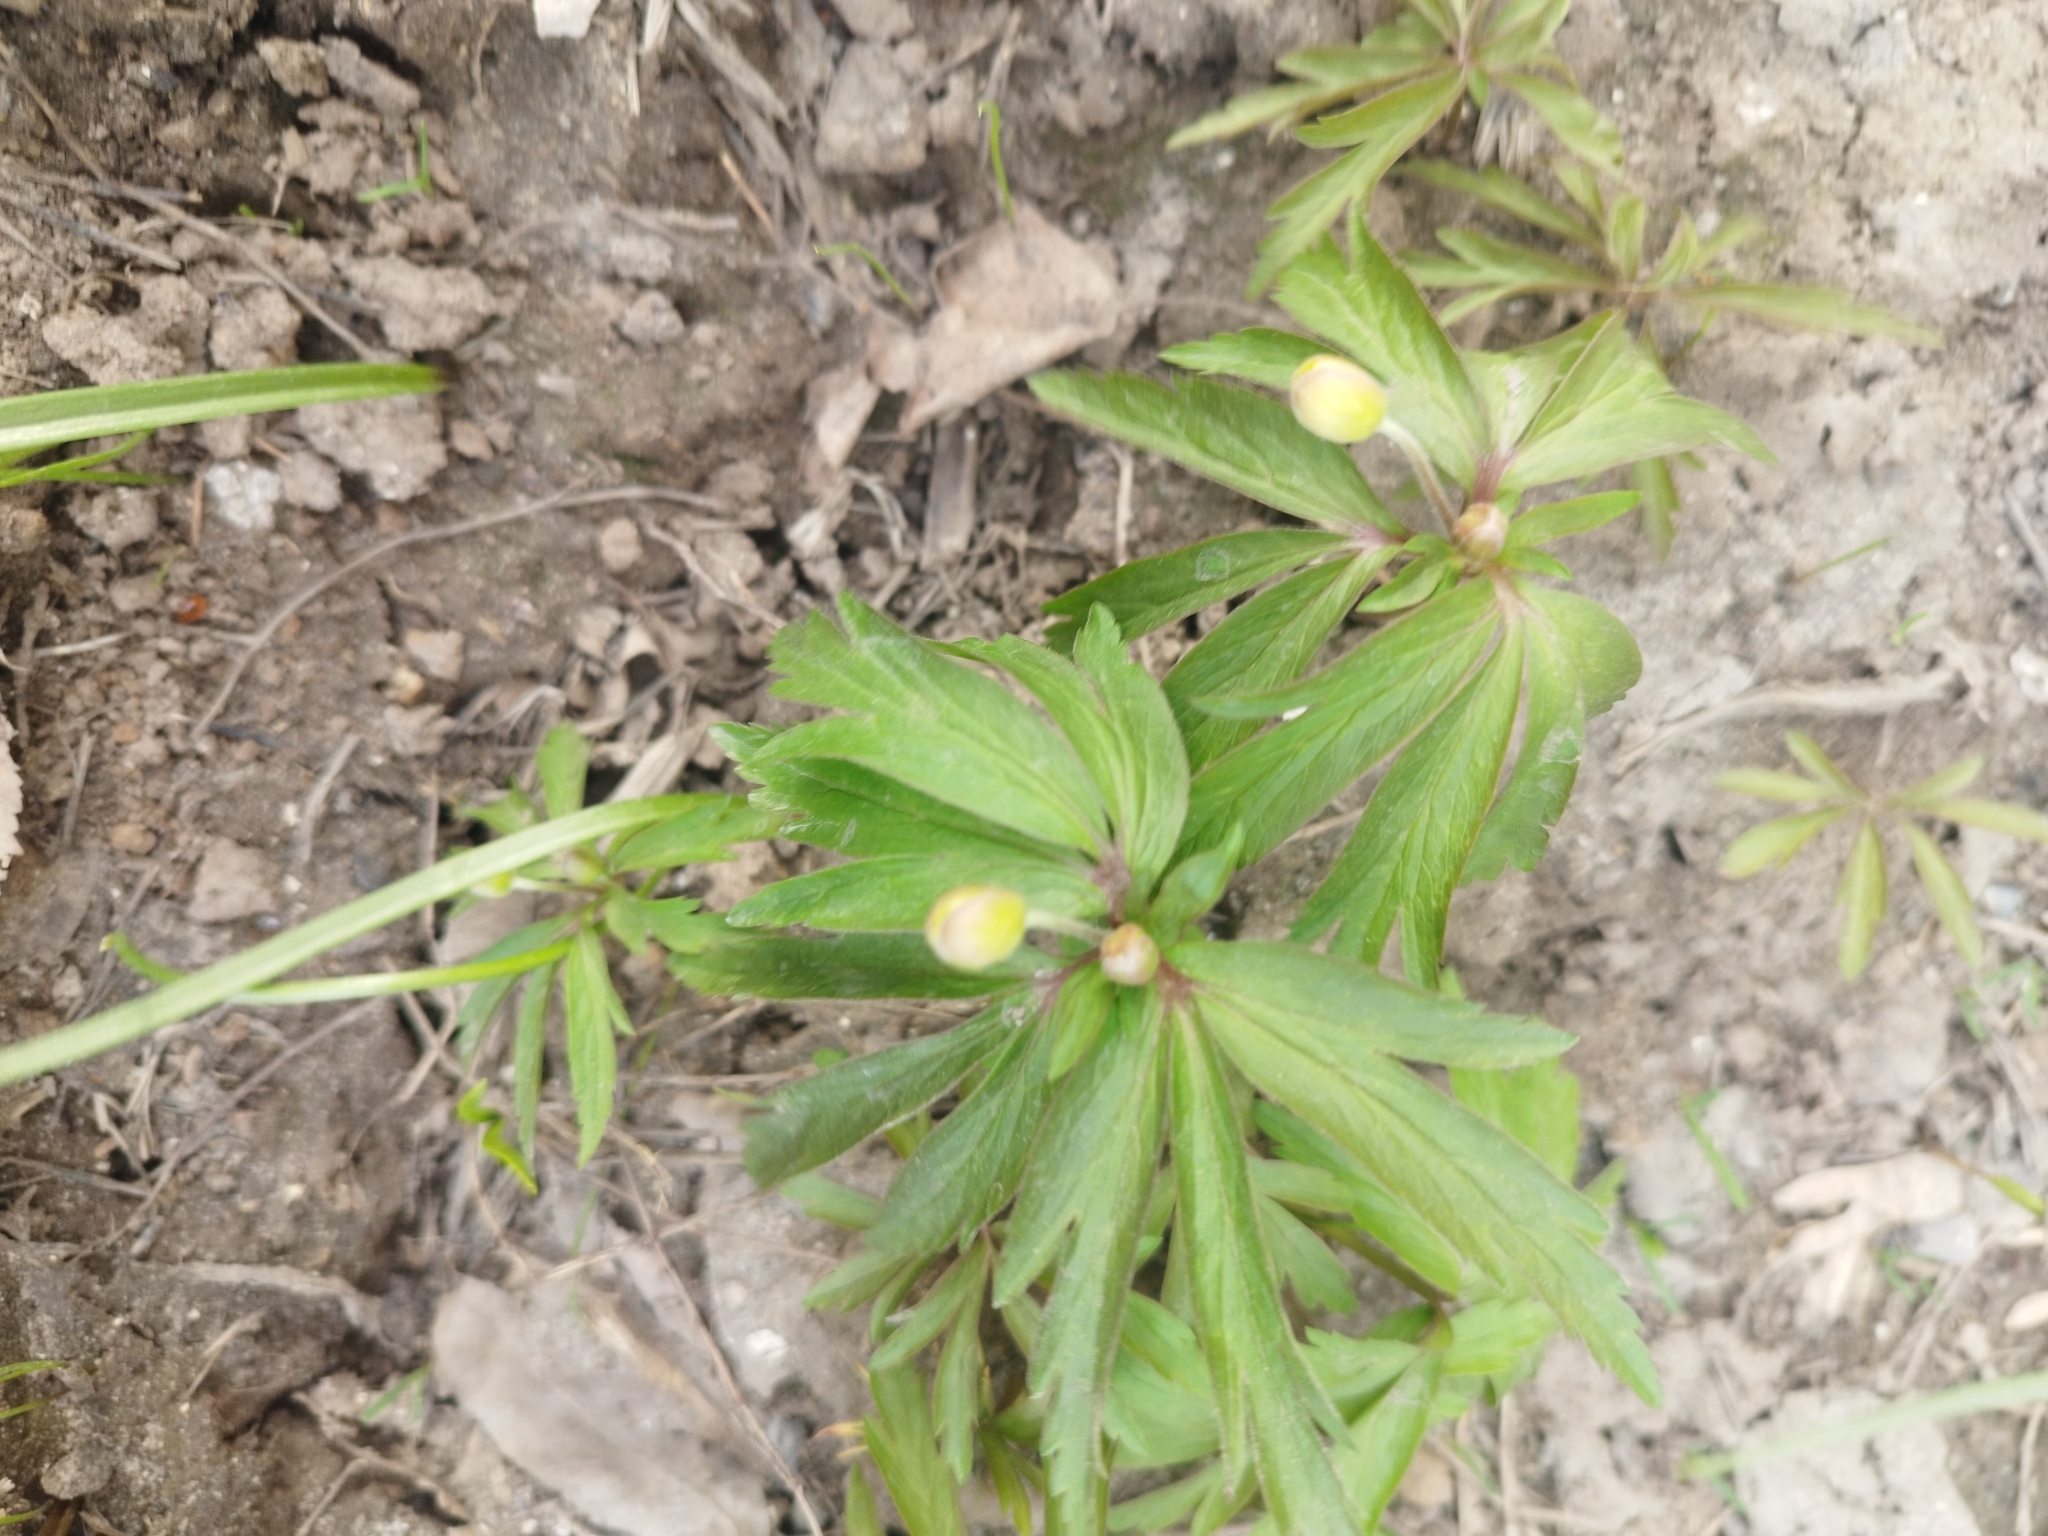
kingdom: Plantae
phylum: Tracheophyta
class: Magnoliopsida
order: Ranunculales
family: Ranunculaceae
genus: Anemone
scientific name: Anemone ranunculoides
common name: Yellow anemone
